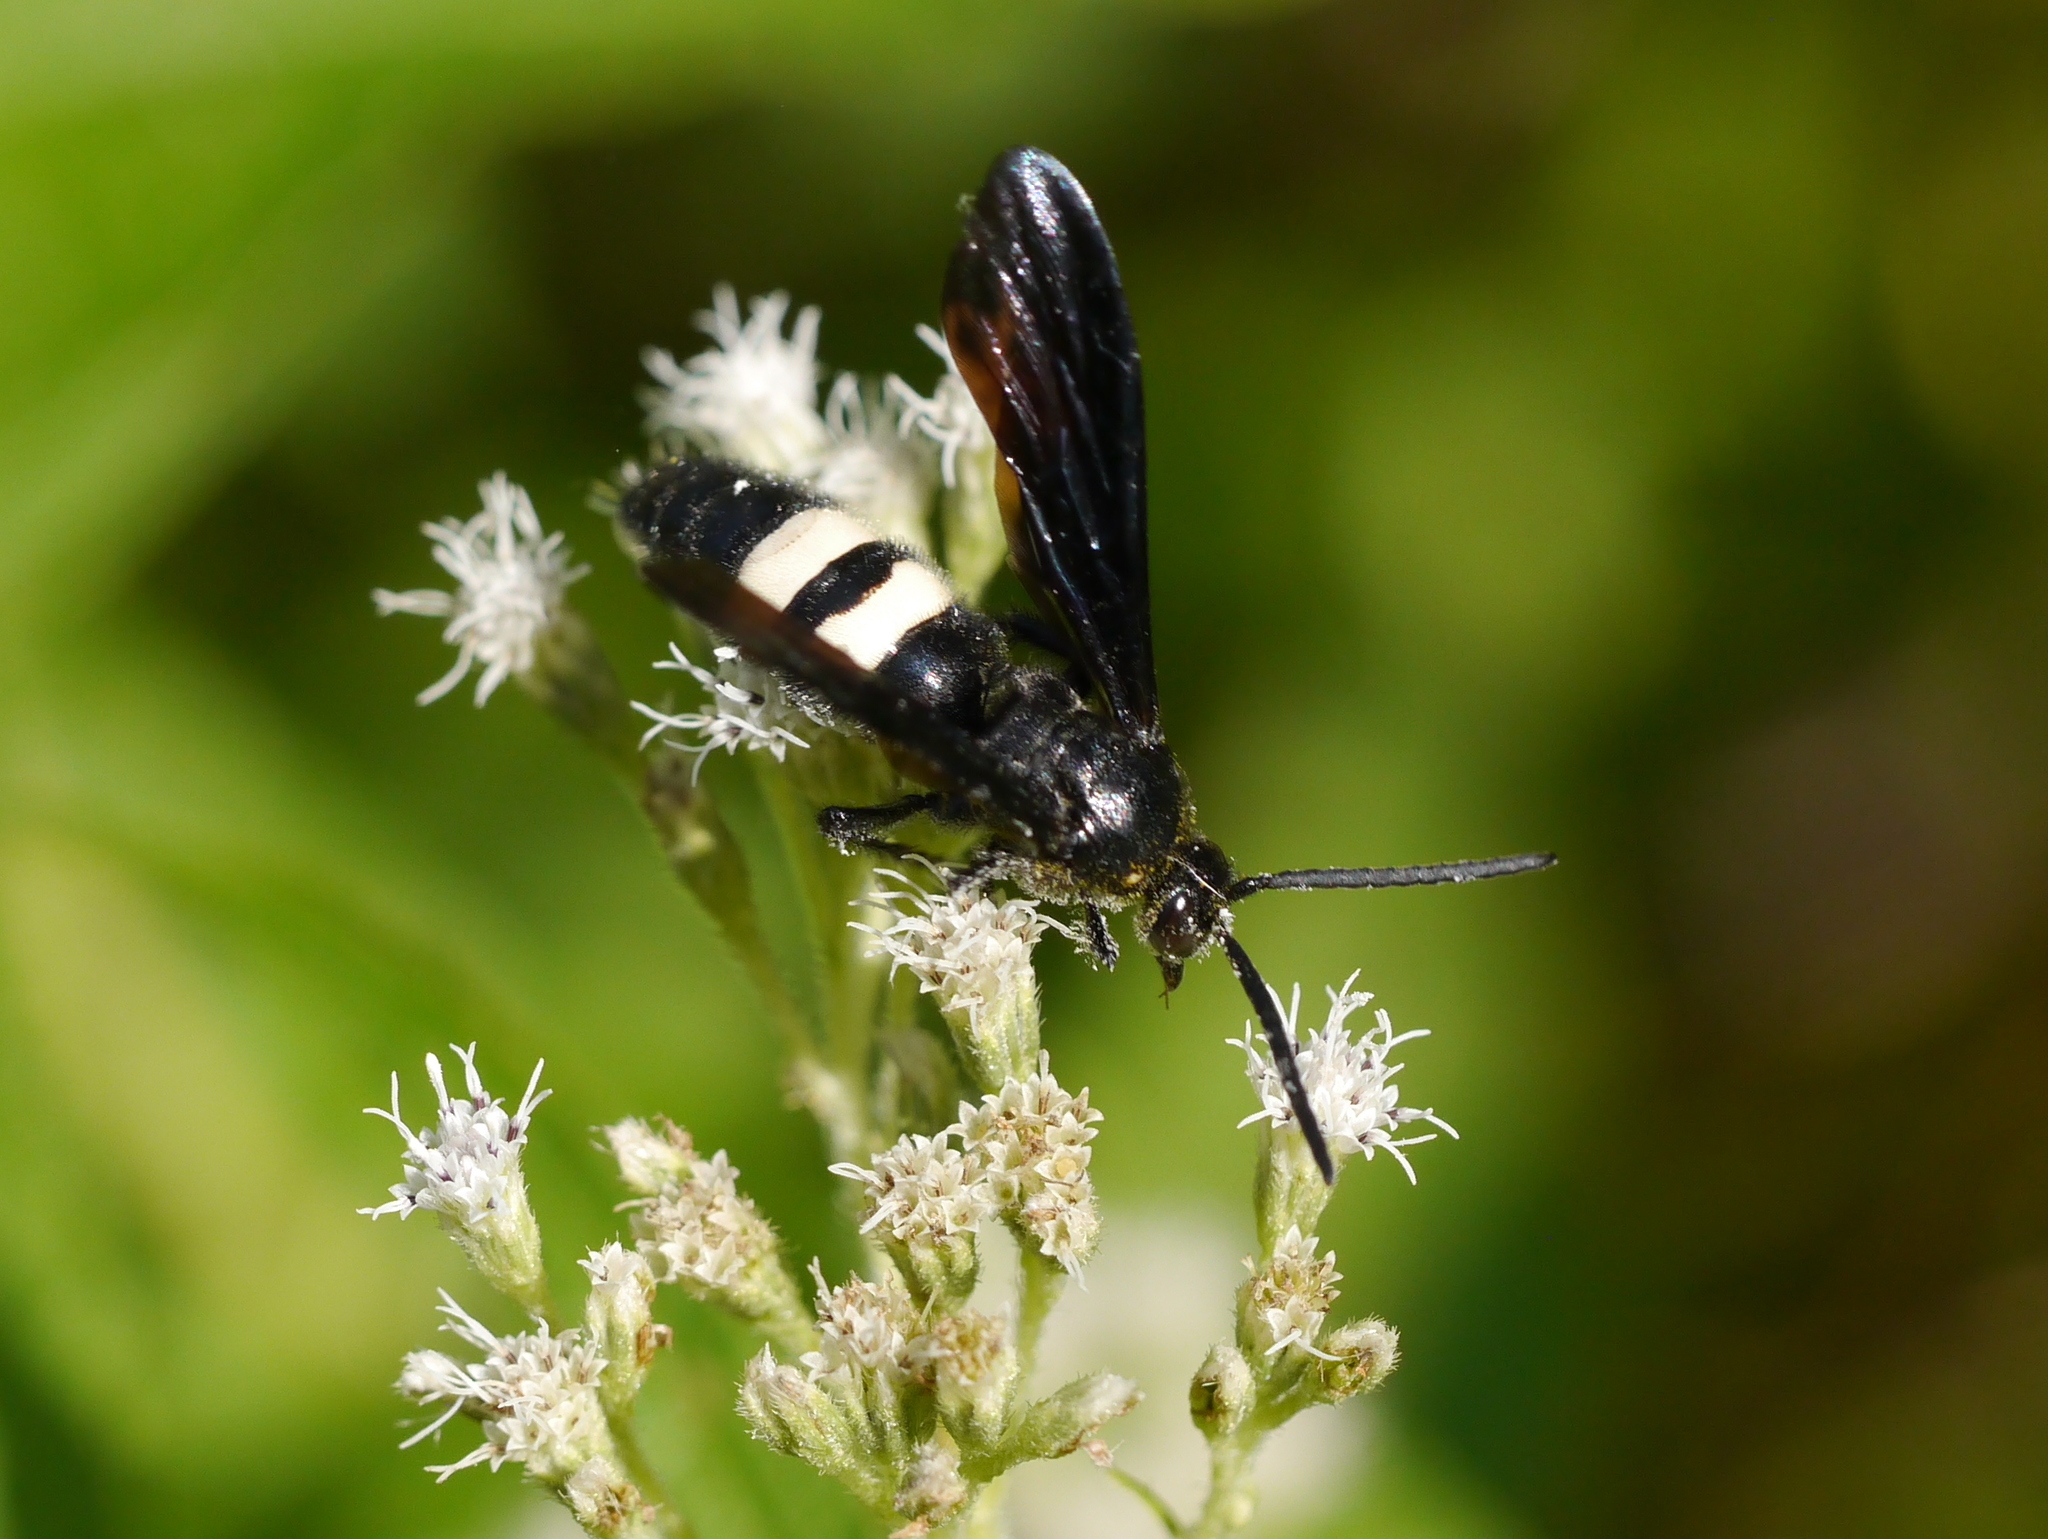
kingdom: Animalia
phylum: Arthropoda
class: Insecta
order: Hymenoptera
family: Scoliidae
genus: Scolia
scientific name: Scolia bicincta
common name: Double-banded scoliid wasp
